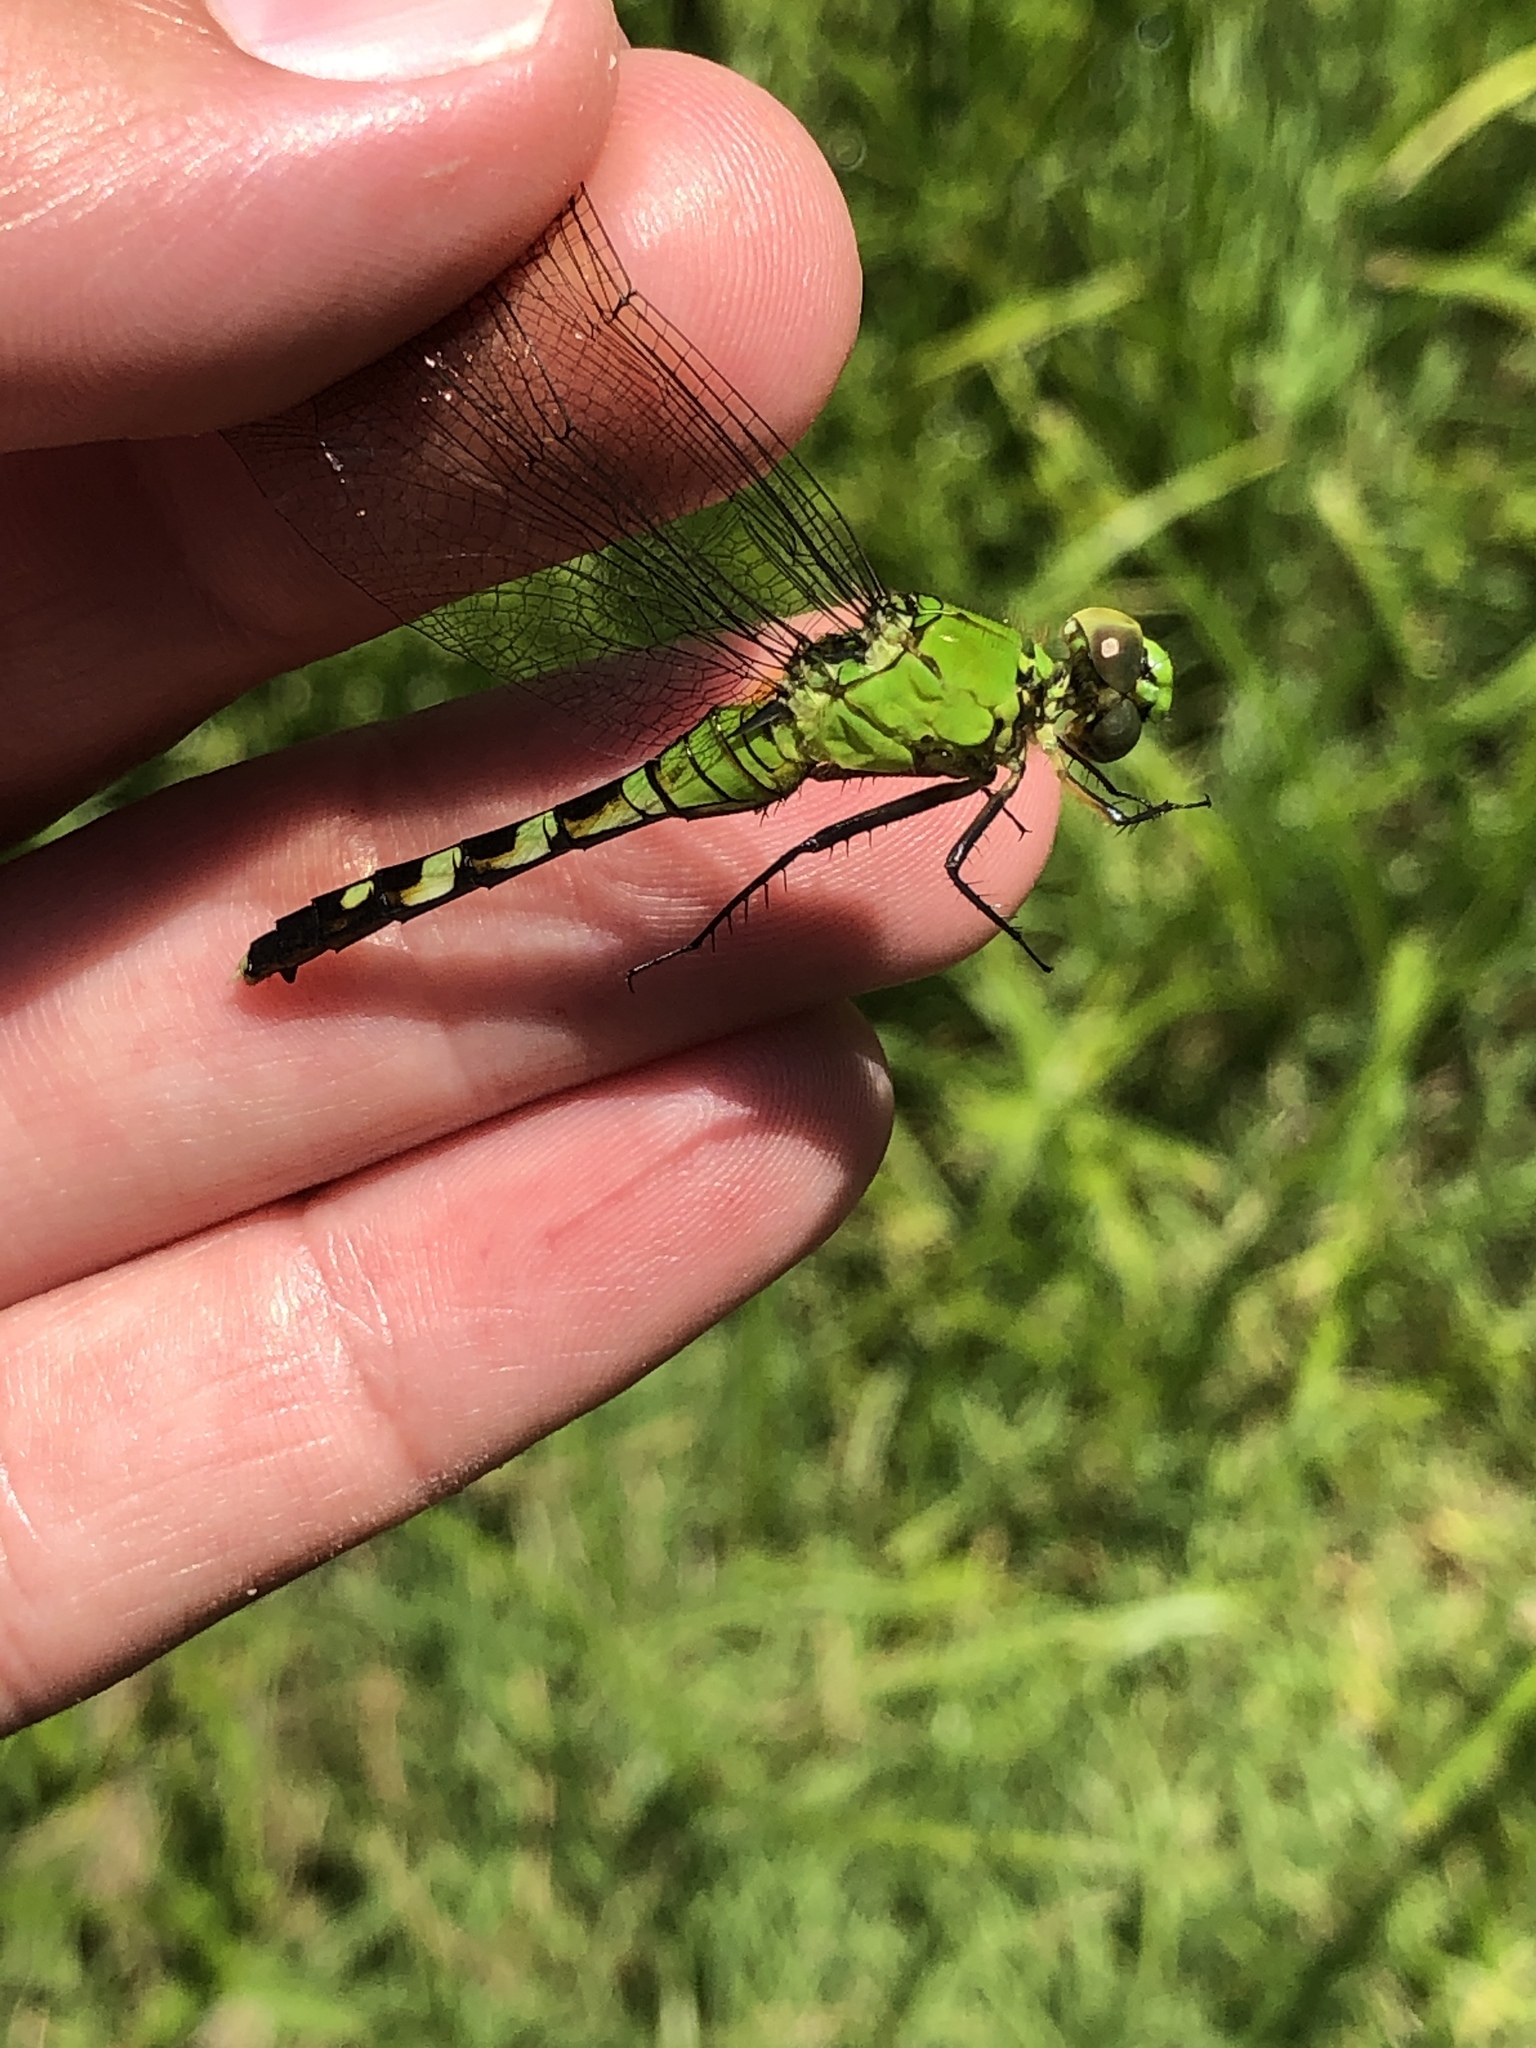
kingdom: Animalia
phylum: Arthropoda
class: Insecta
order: Odonata
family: Libellulidae
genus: Erythemis
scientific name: Erythemis simplicicollis
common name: Eastern pondhawk
